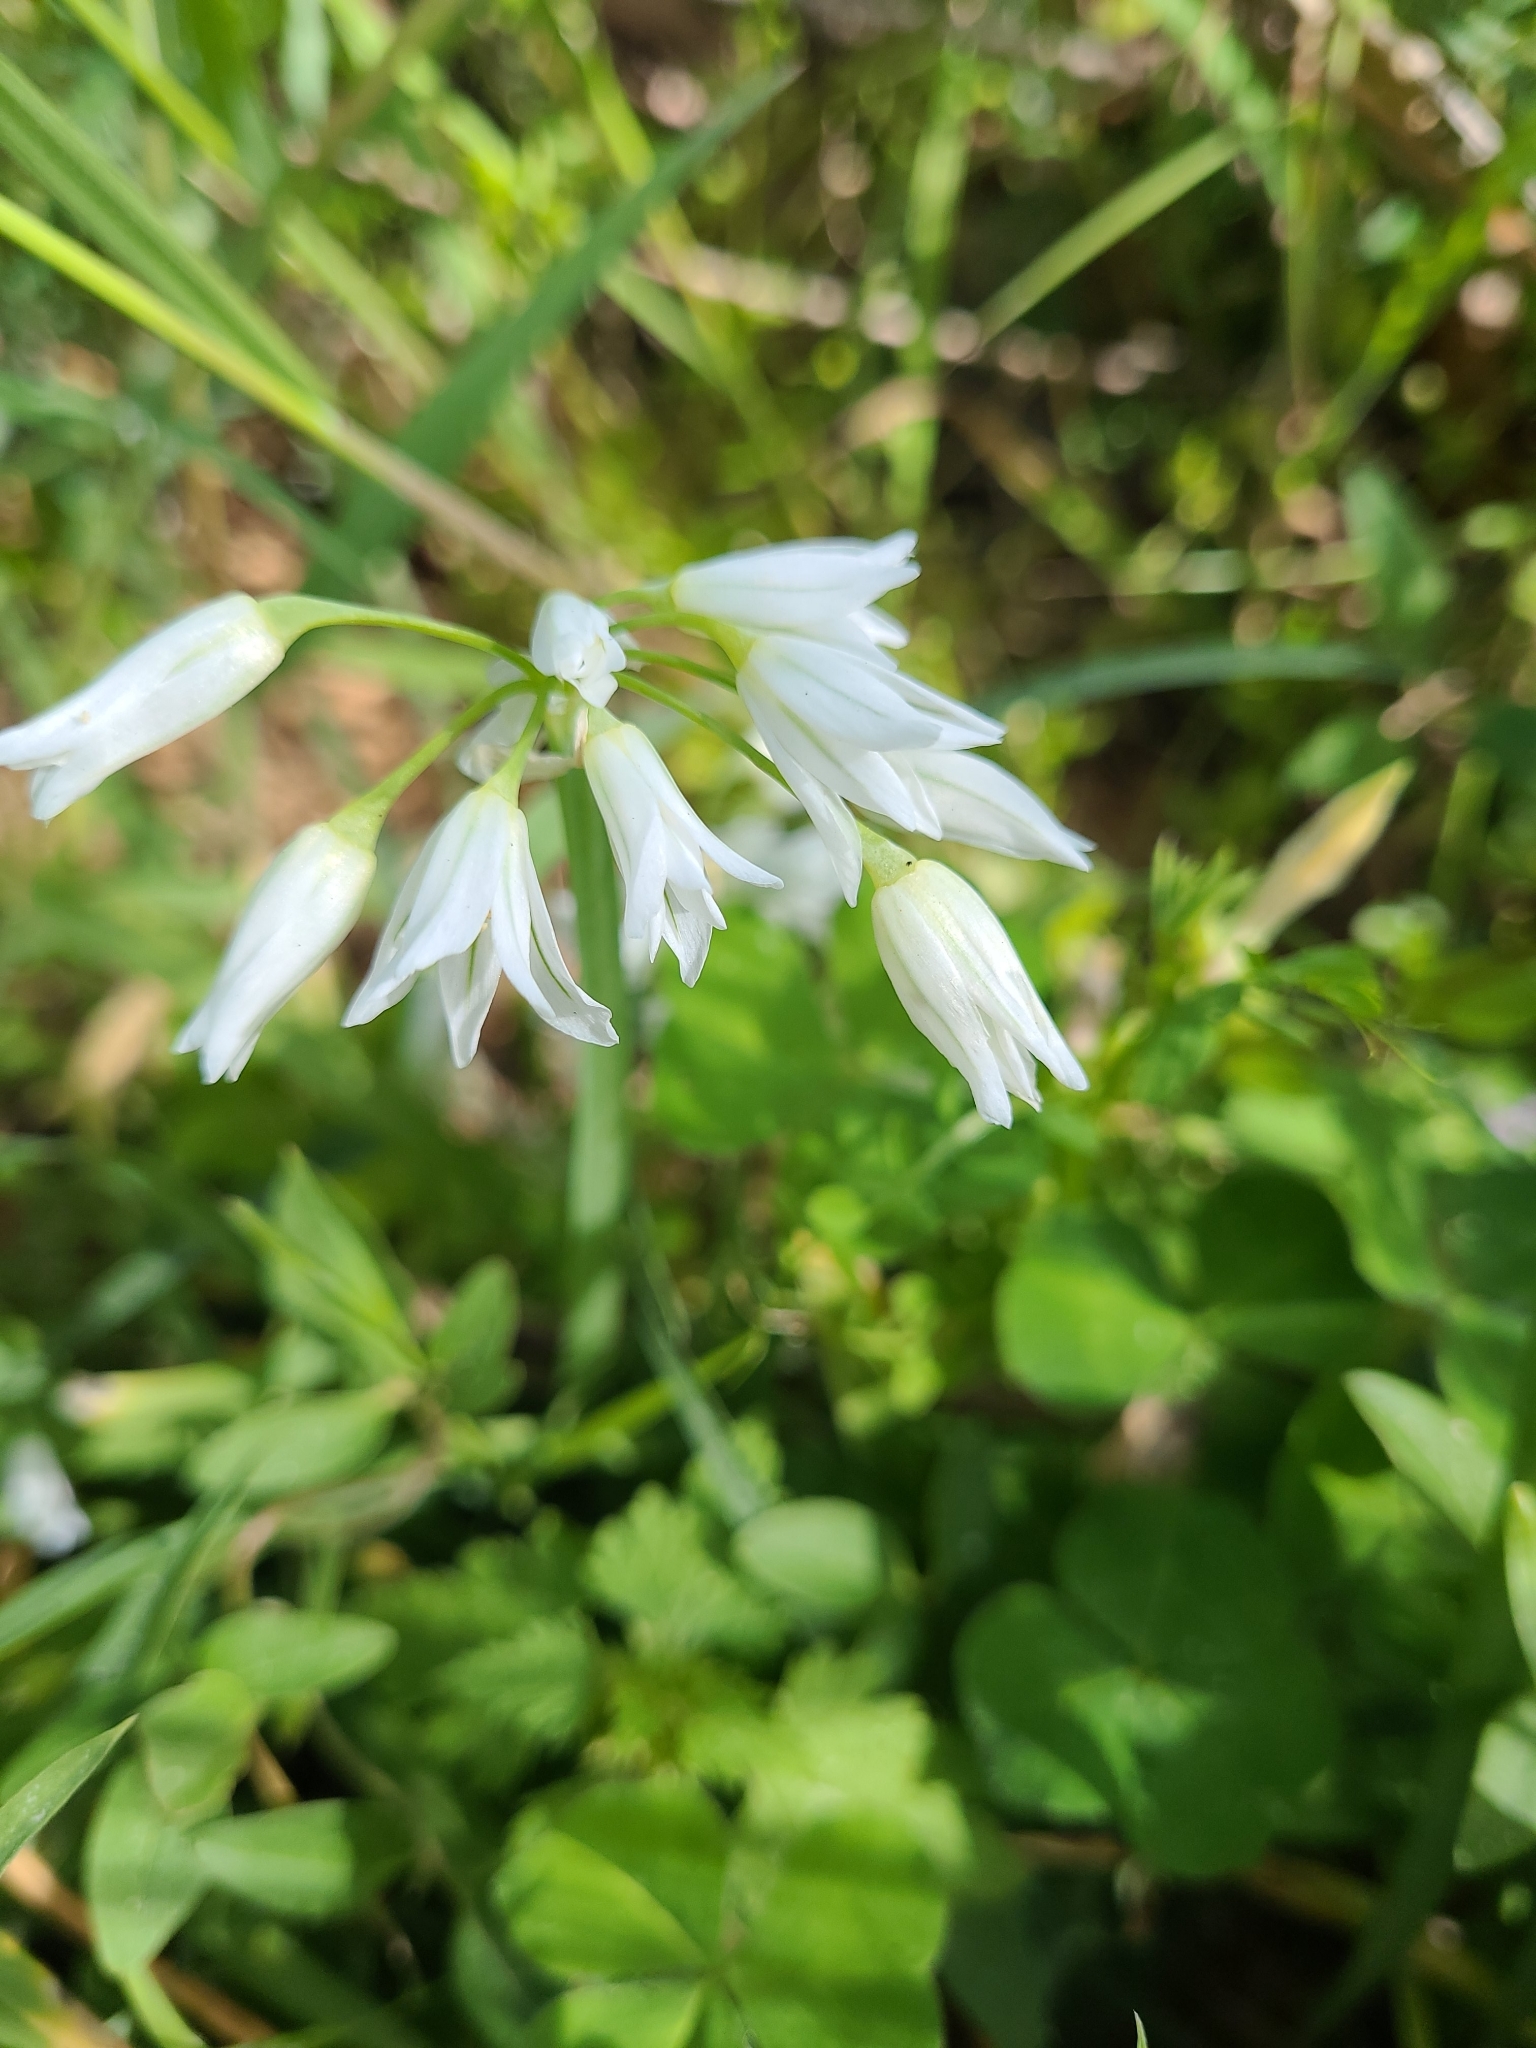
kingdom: Plantae
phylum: Tracheophyta
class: Liliopsida
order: Asparagales
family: Amaryllidaceae
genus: Allium
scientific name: Allium triquetrum
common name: Three-cornered garlic
